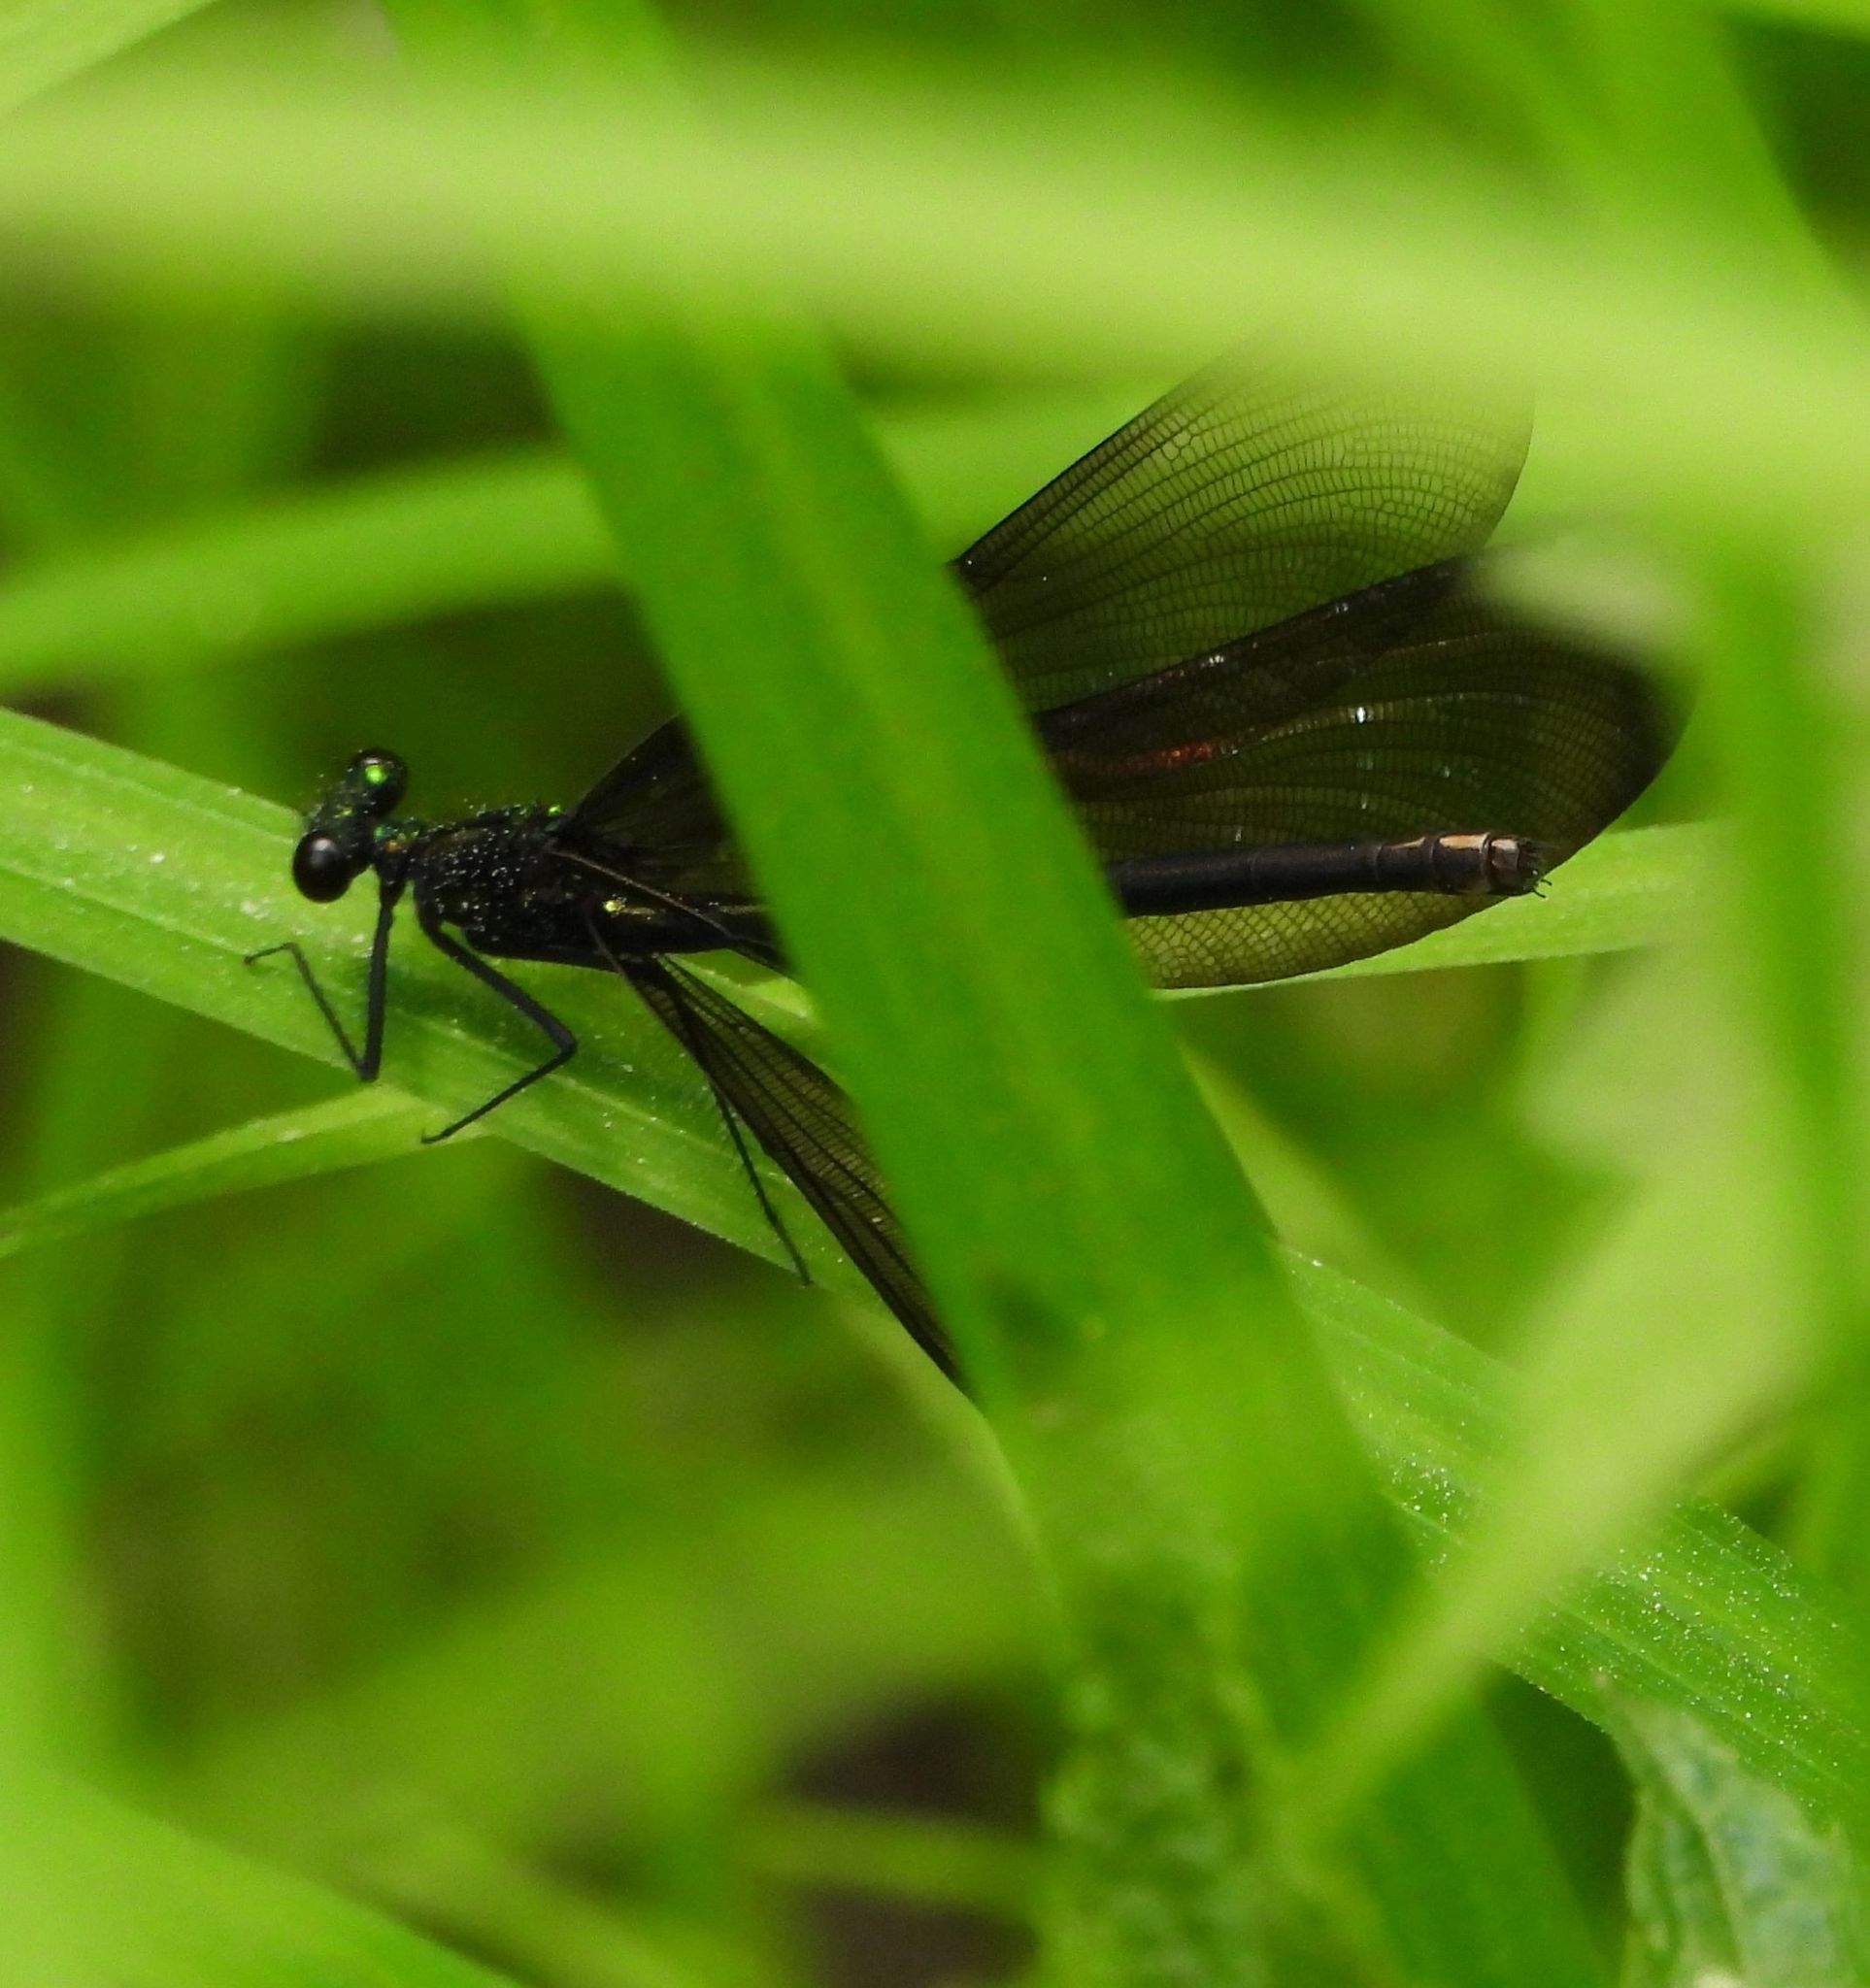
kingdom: Animalia
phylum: Arthropoda
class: Insecta
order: Odonata
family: Calopterygidae
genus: Calopteryx
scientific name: Calopteryx maculata
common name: Ebony jewelwing
